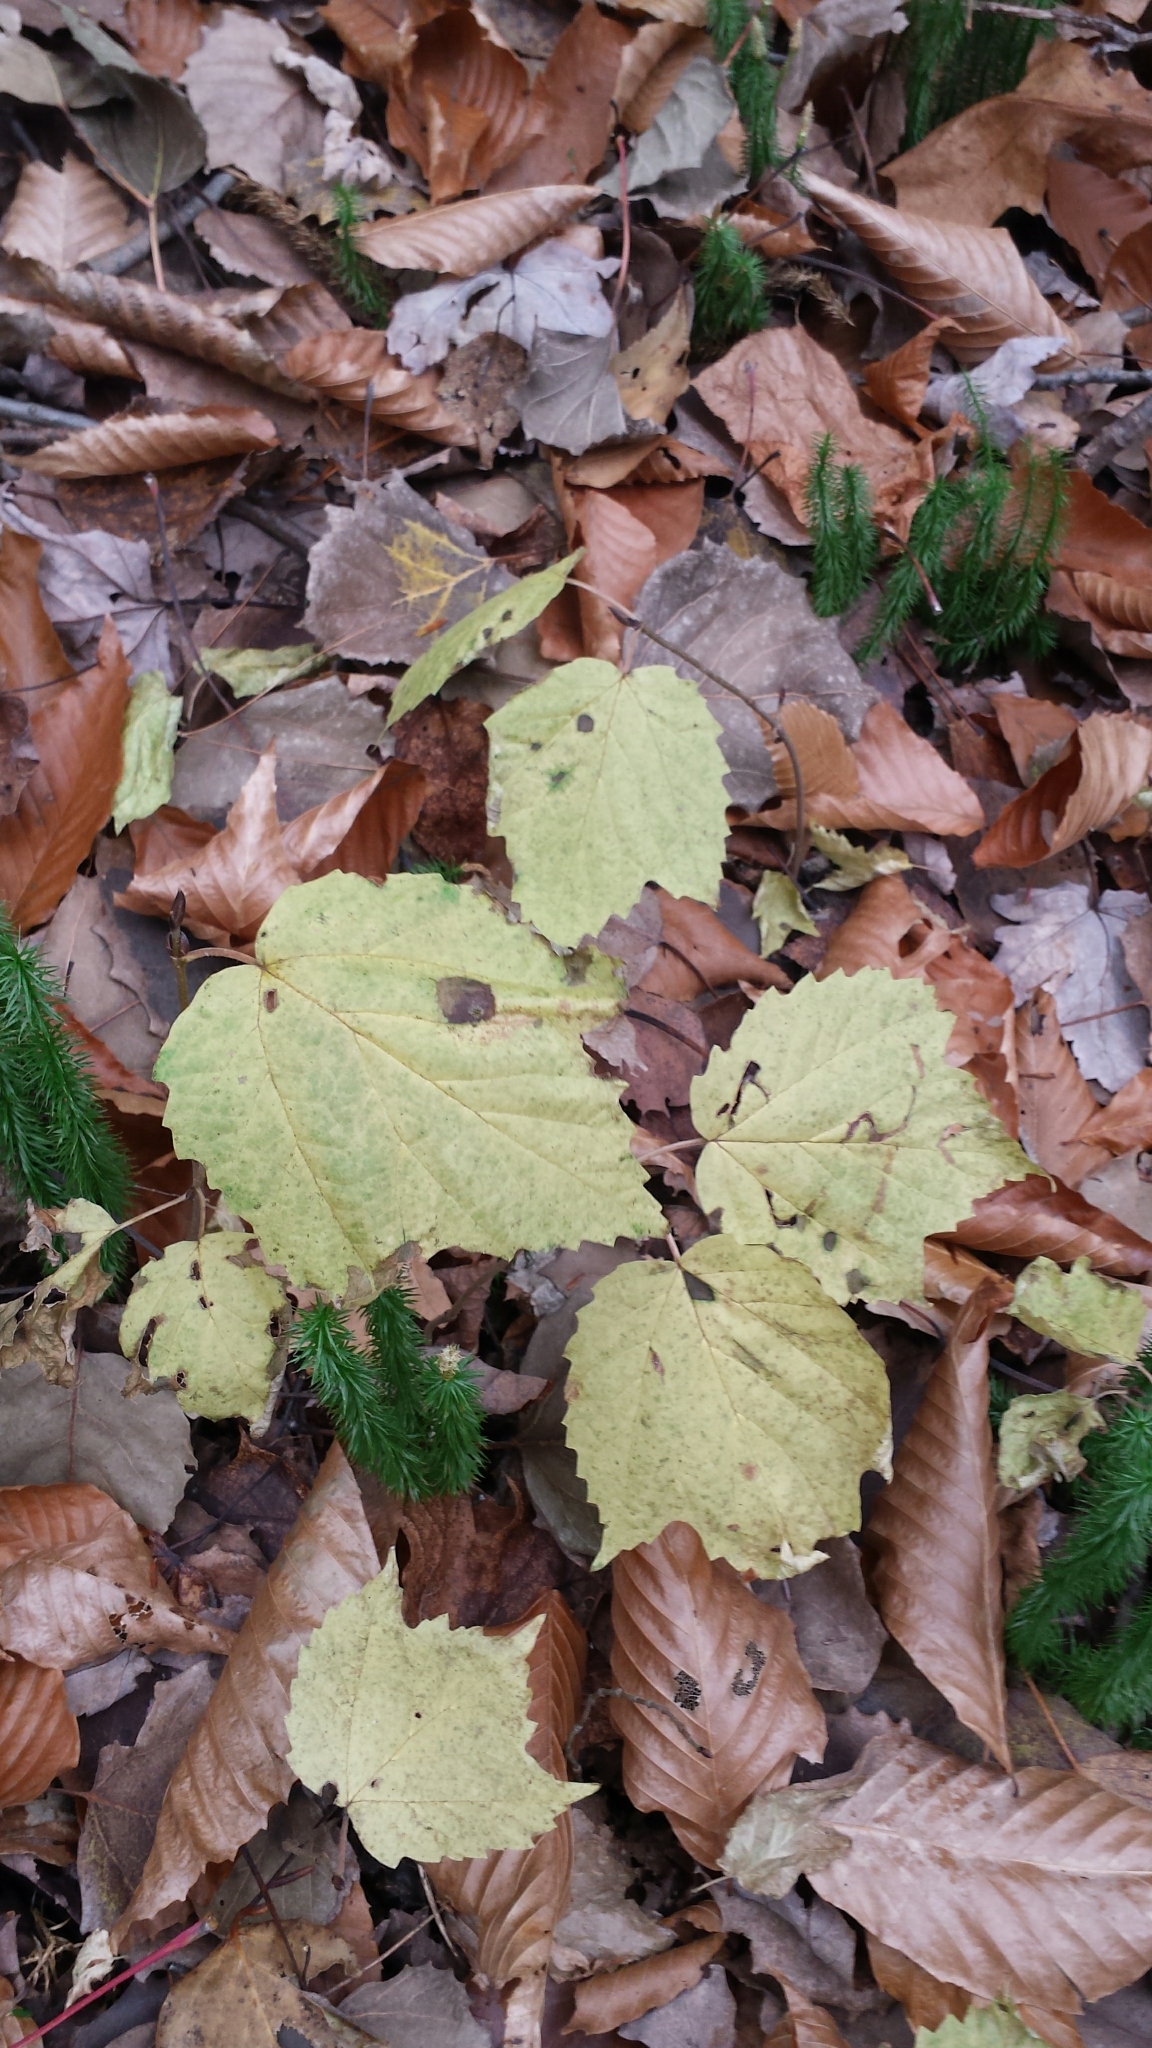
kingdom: Plantae
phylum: Tracheophyta
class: Magnoliopsida
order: Dipsacales
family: Viburnaceae
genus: Viburnum
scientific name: Viburnum acerifolium
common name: Dockmackie
